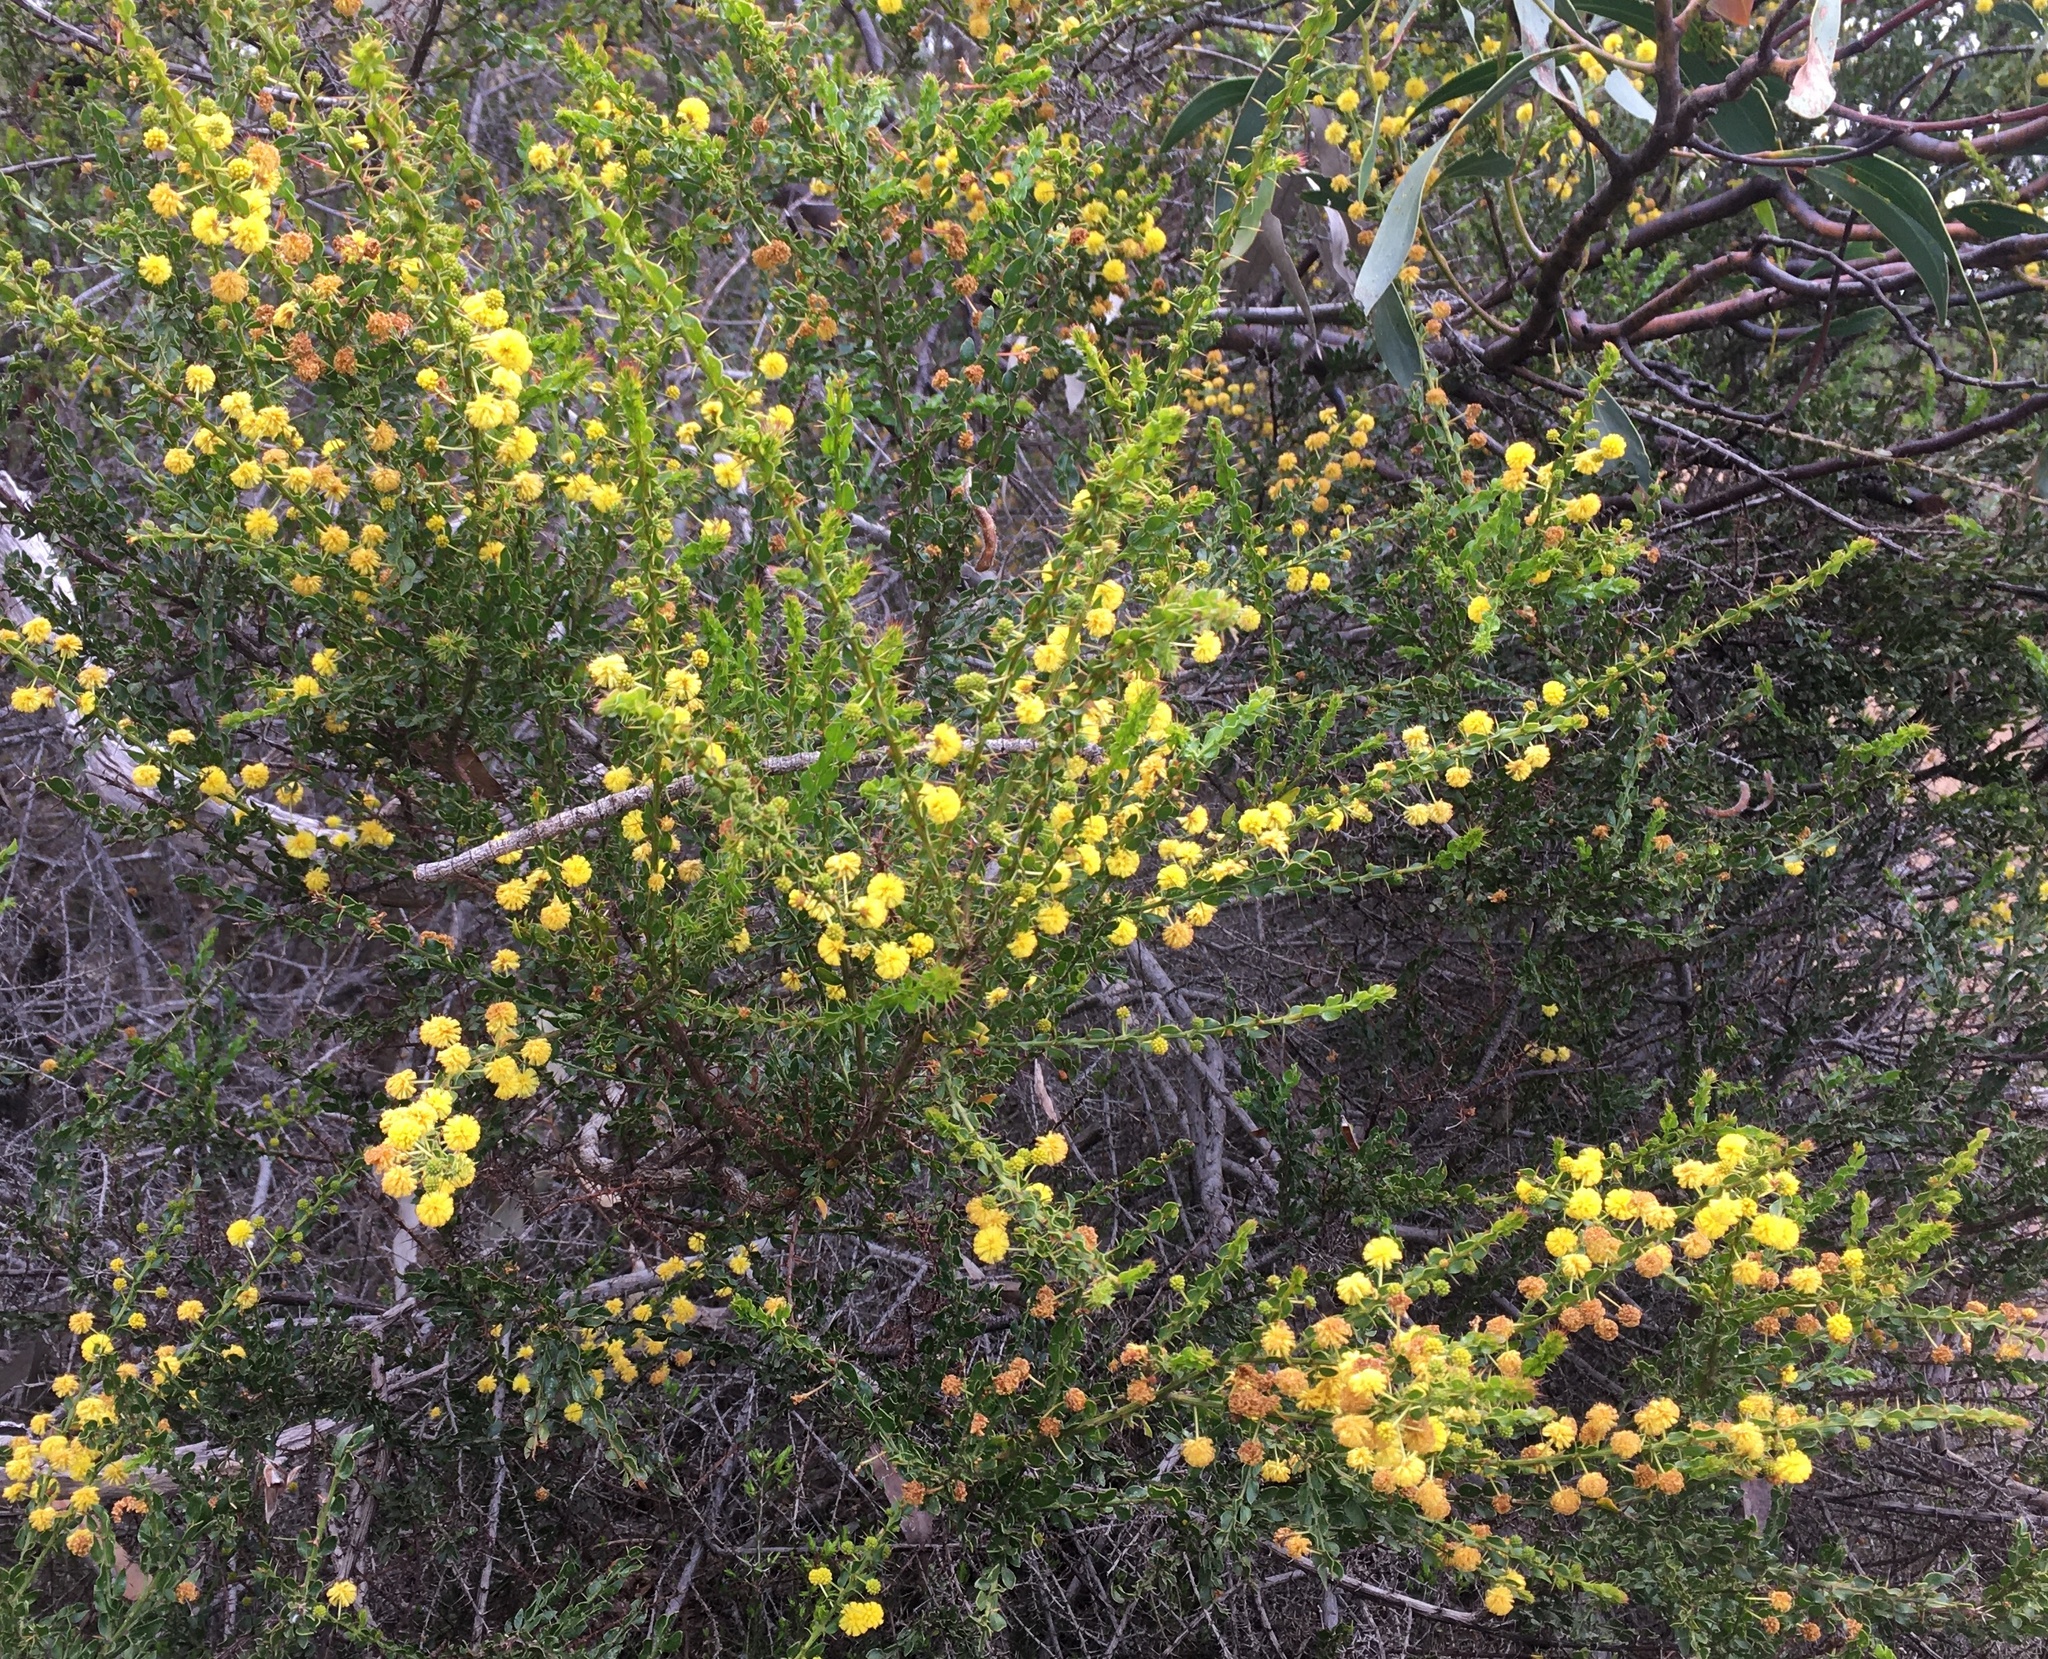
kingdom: Plantae
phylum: Tracheophyta
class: Magnoliopsida
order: Fabales
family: Fabaceae
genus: Acacia
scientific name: Acacia paradoxa
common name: Paradox acacia
